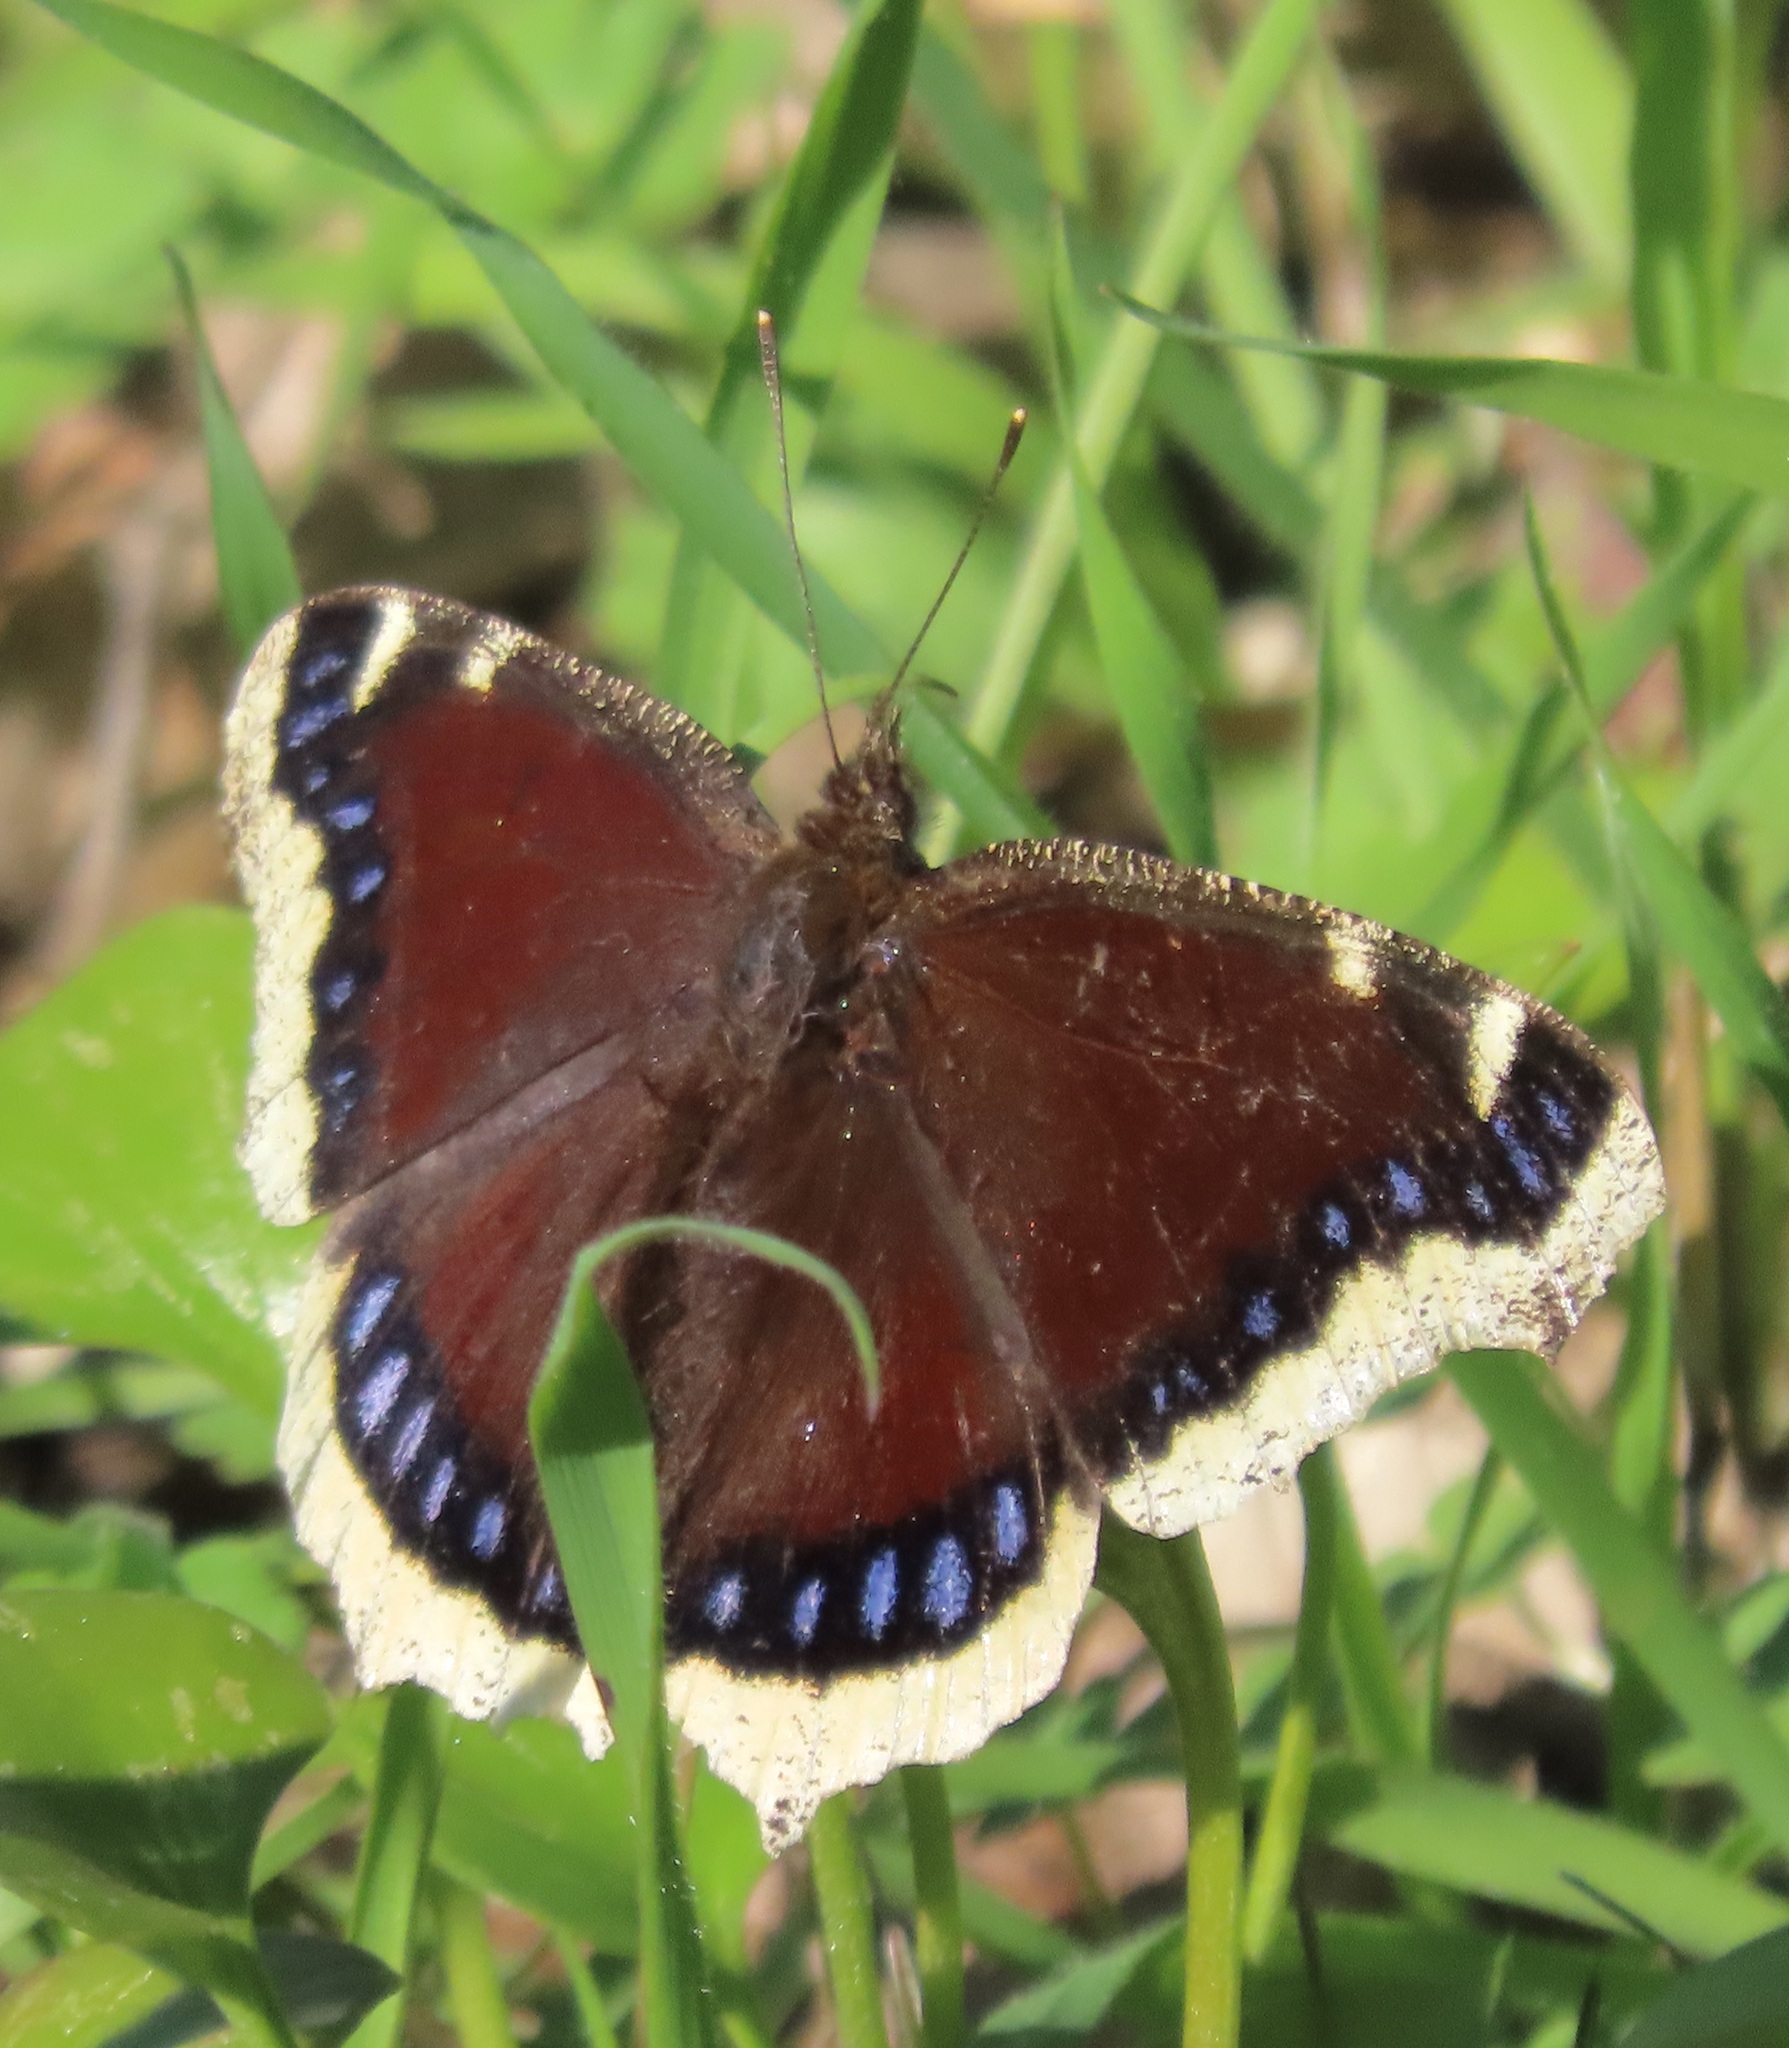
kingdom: Animalia
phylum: Arthropoda
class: Insecta
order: Lepidoptera
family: Nymphalidae
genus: Nymphalis
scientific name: Nymphalis antiopa
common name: Camberwell beauty
